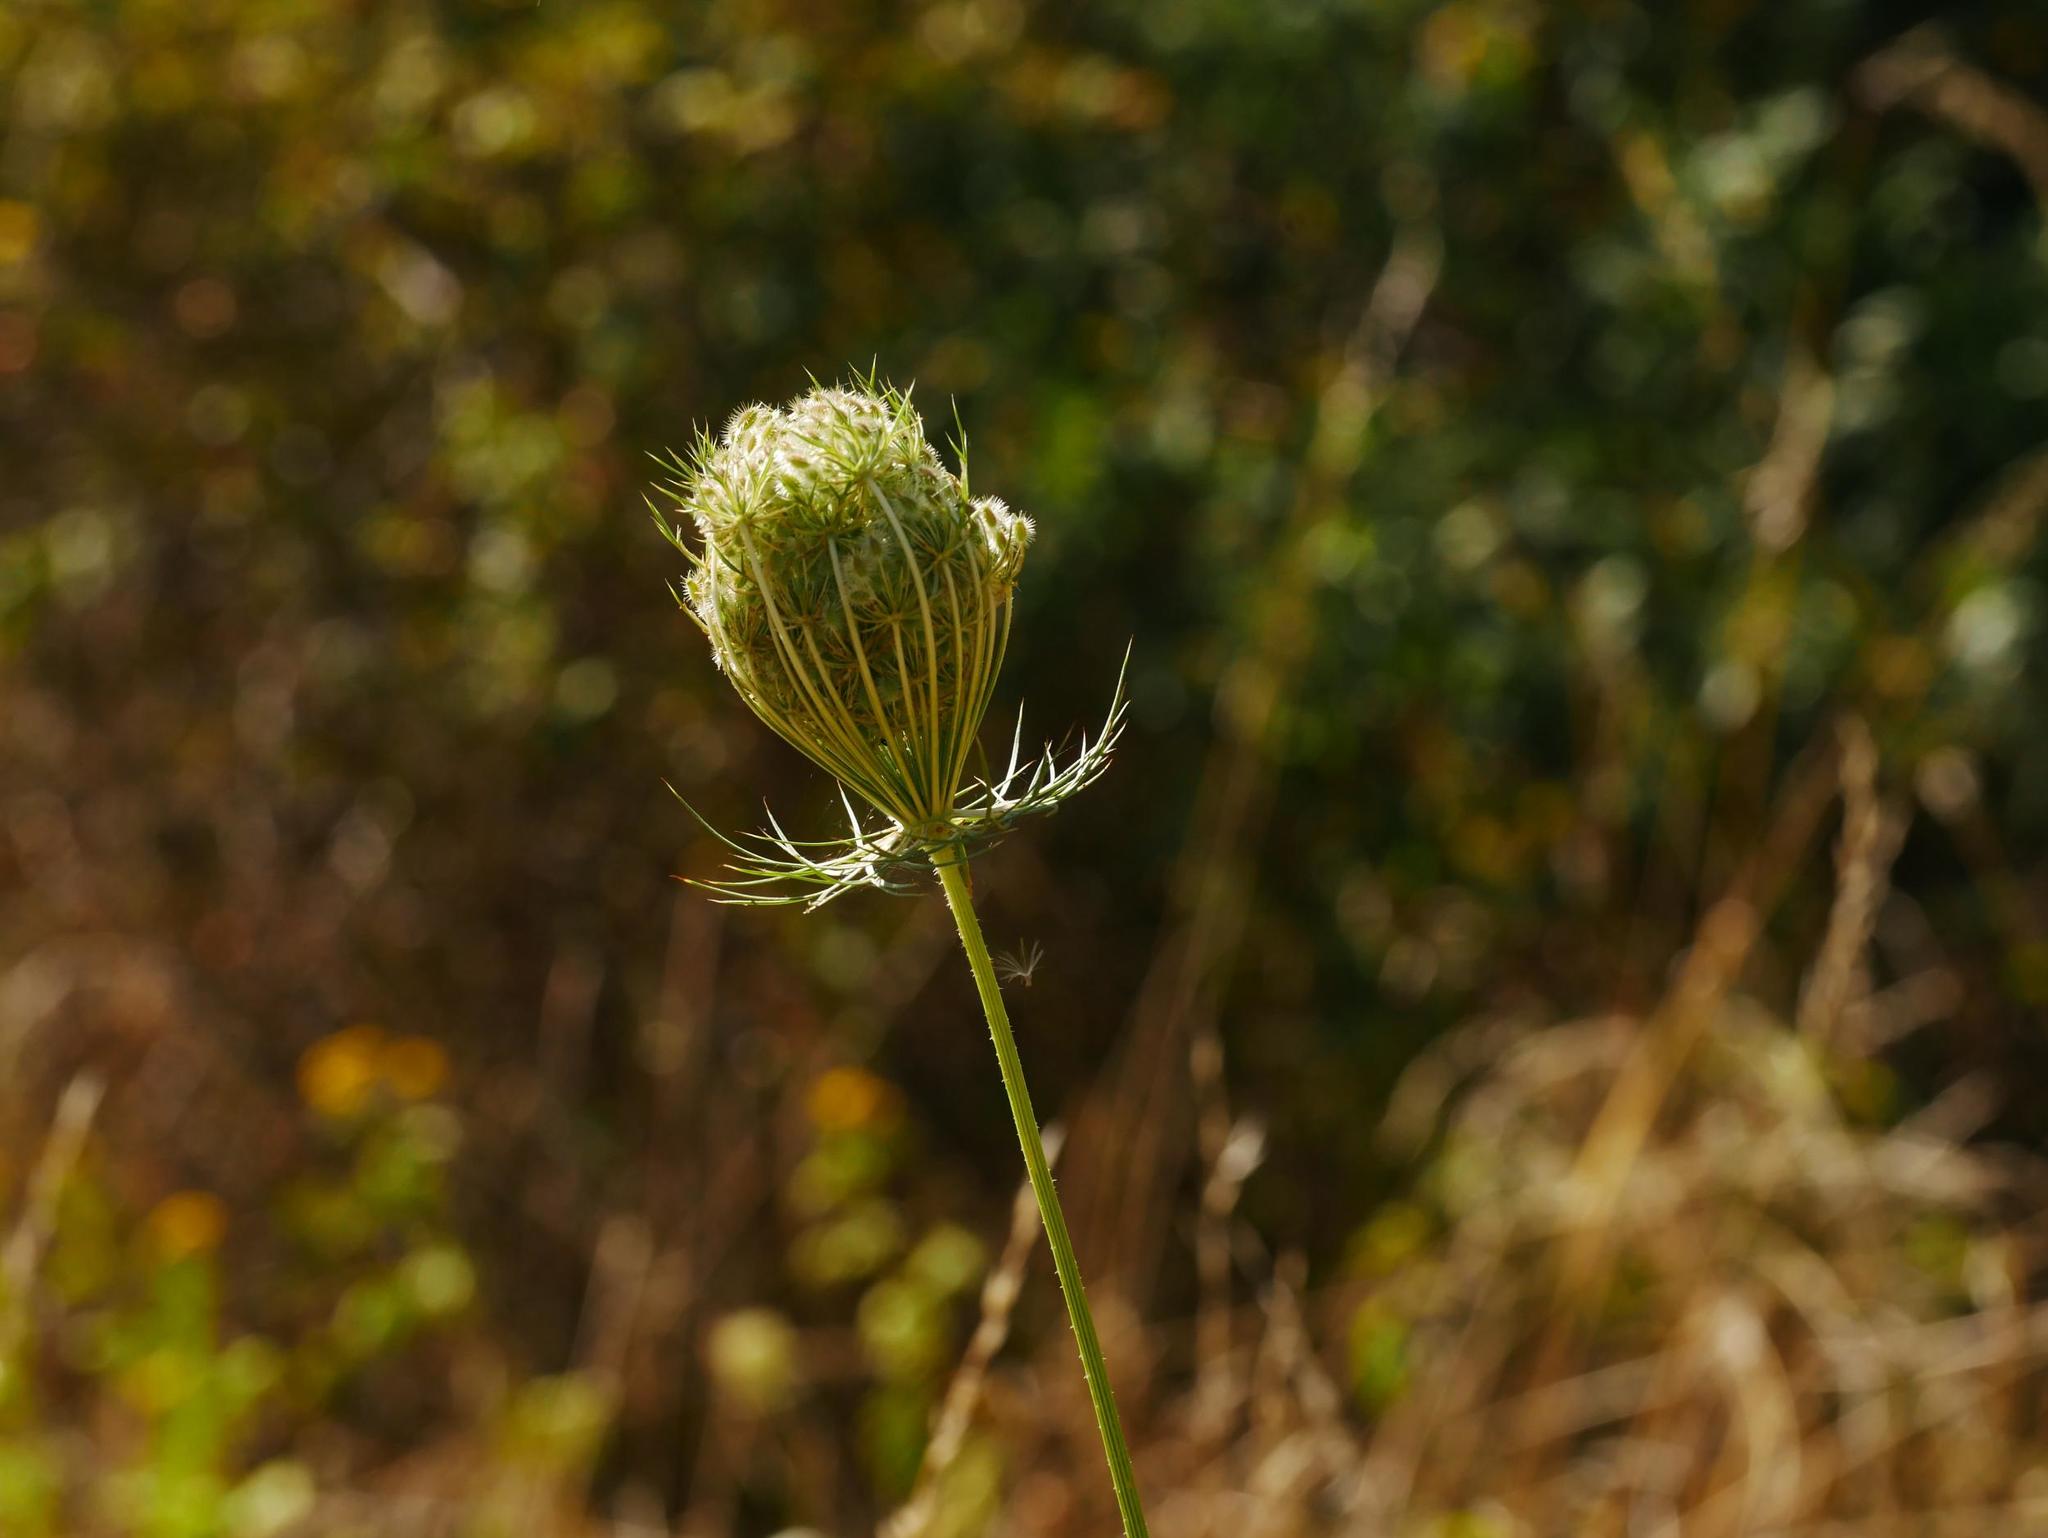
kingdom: Plantae
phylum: Tracheophyta
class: Magnoliopsida
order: Apiales
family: Apiaceae
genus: Daucus
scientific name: Daucus carota
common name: Wild carrot
